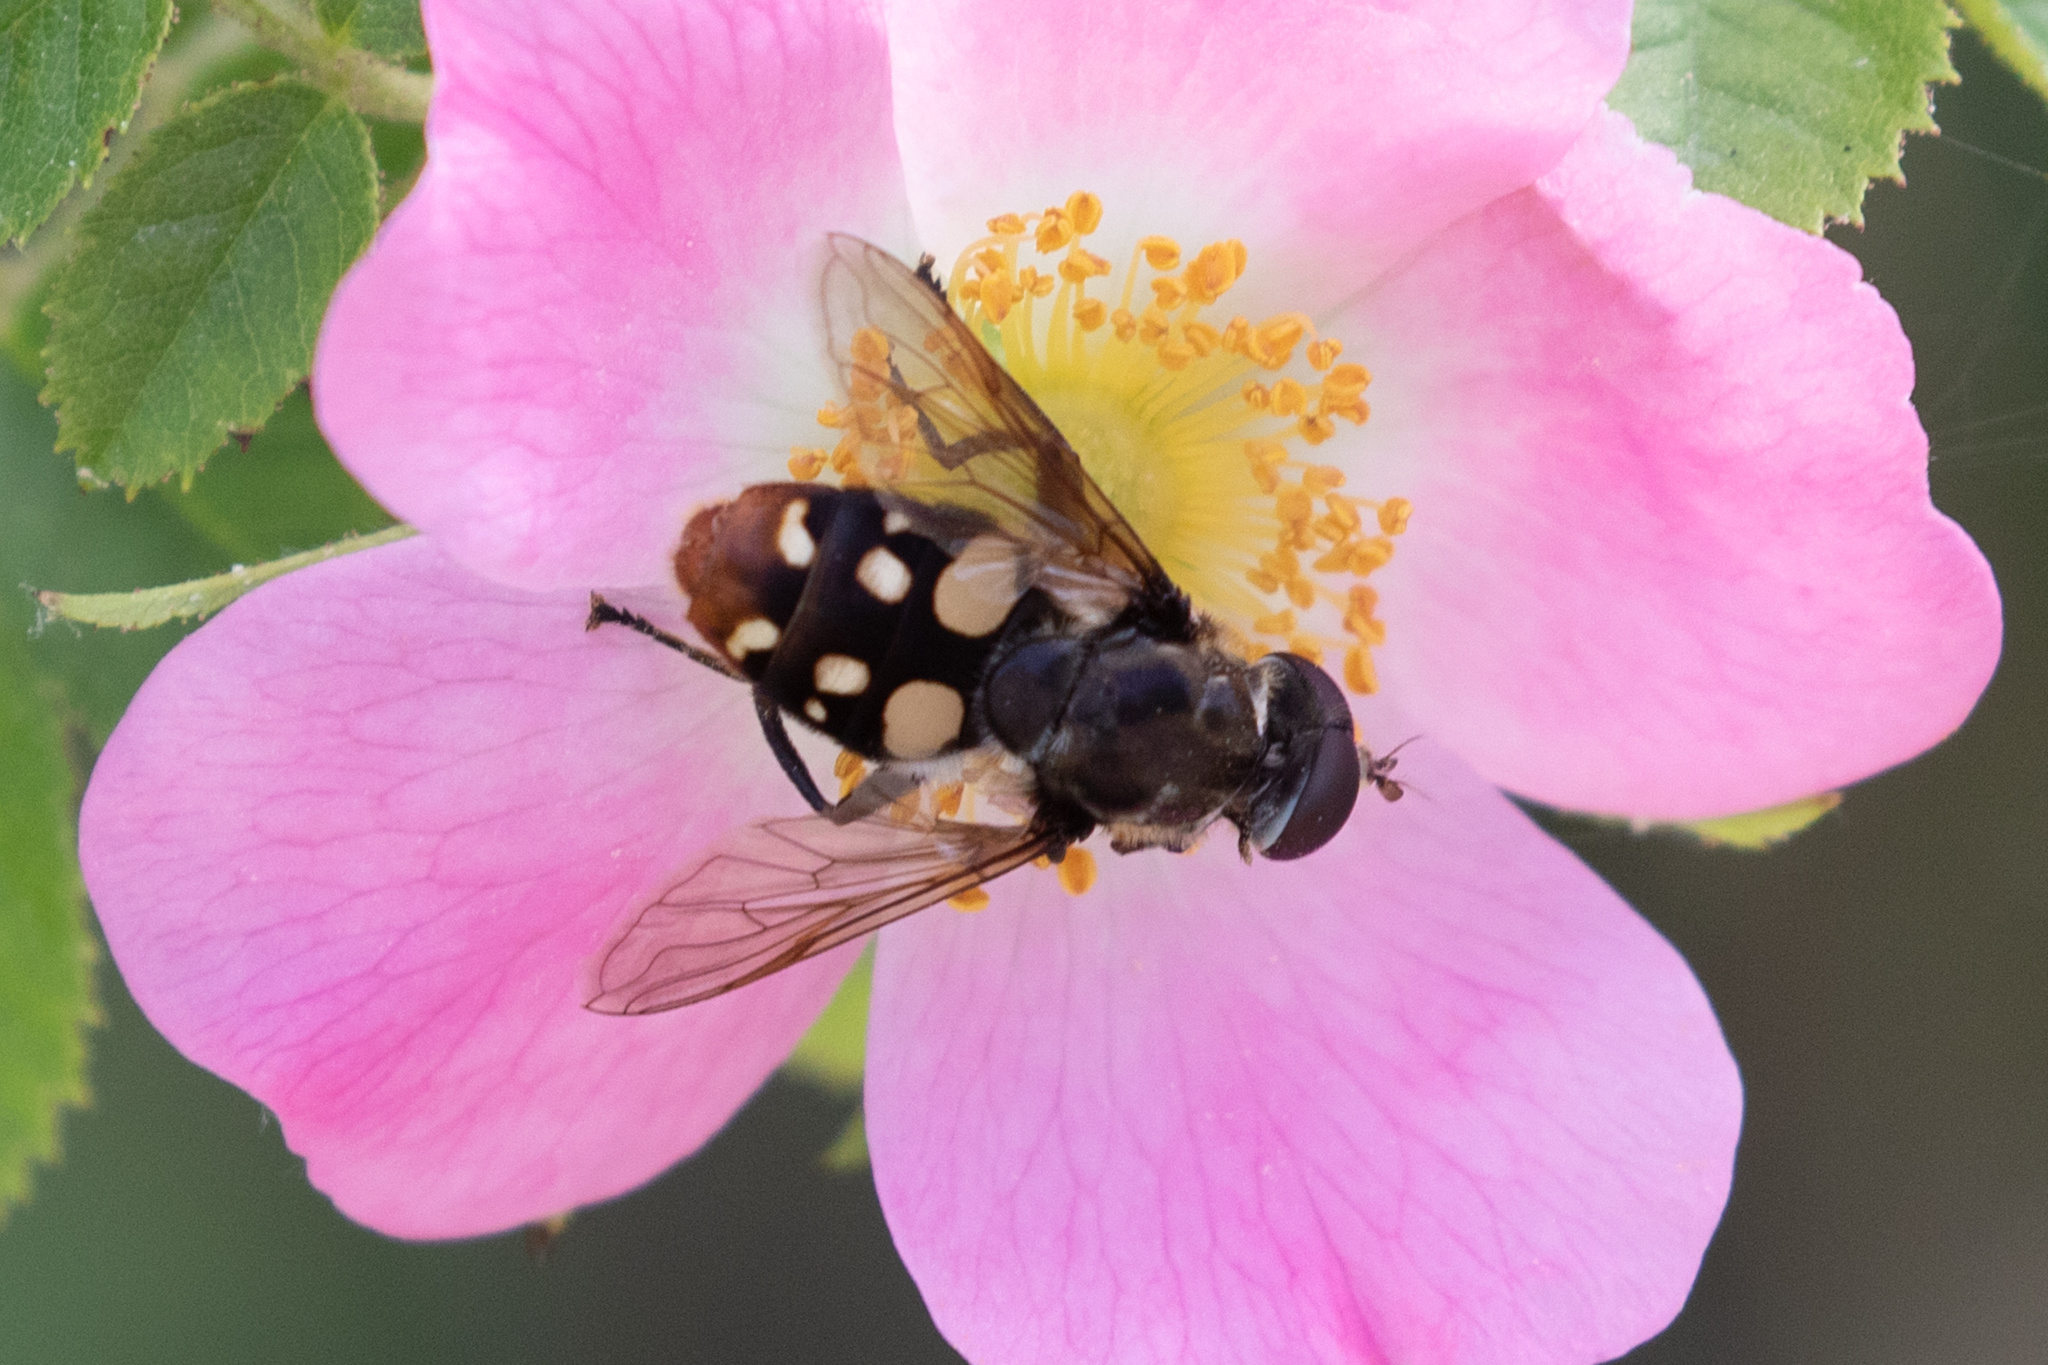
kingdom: Animalia
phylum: Arthropoda
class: Insecta
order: Diptera
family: Syrphidae
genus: Sericomyia
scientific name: Sericomyia lata
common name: White-spotted pond fly
